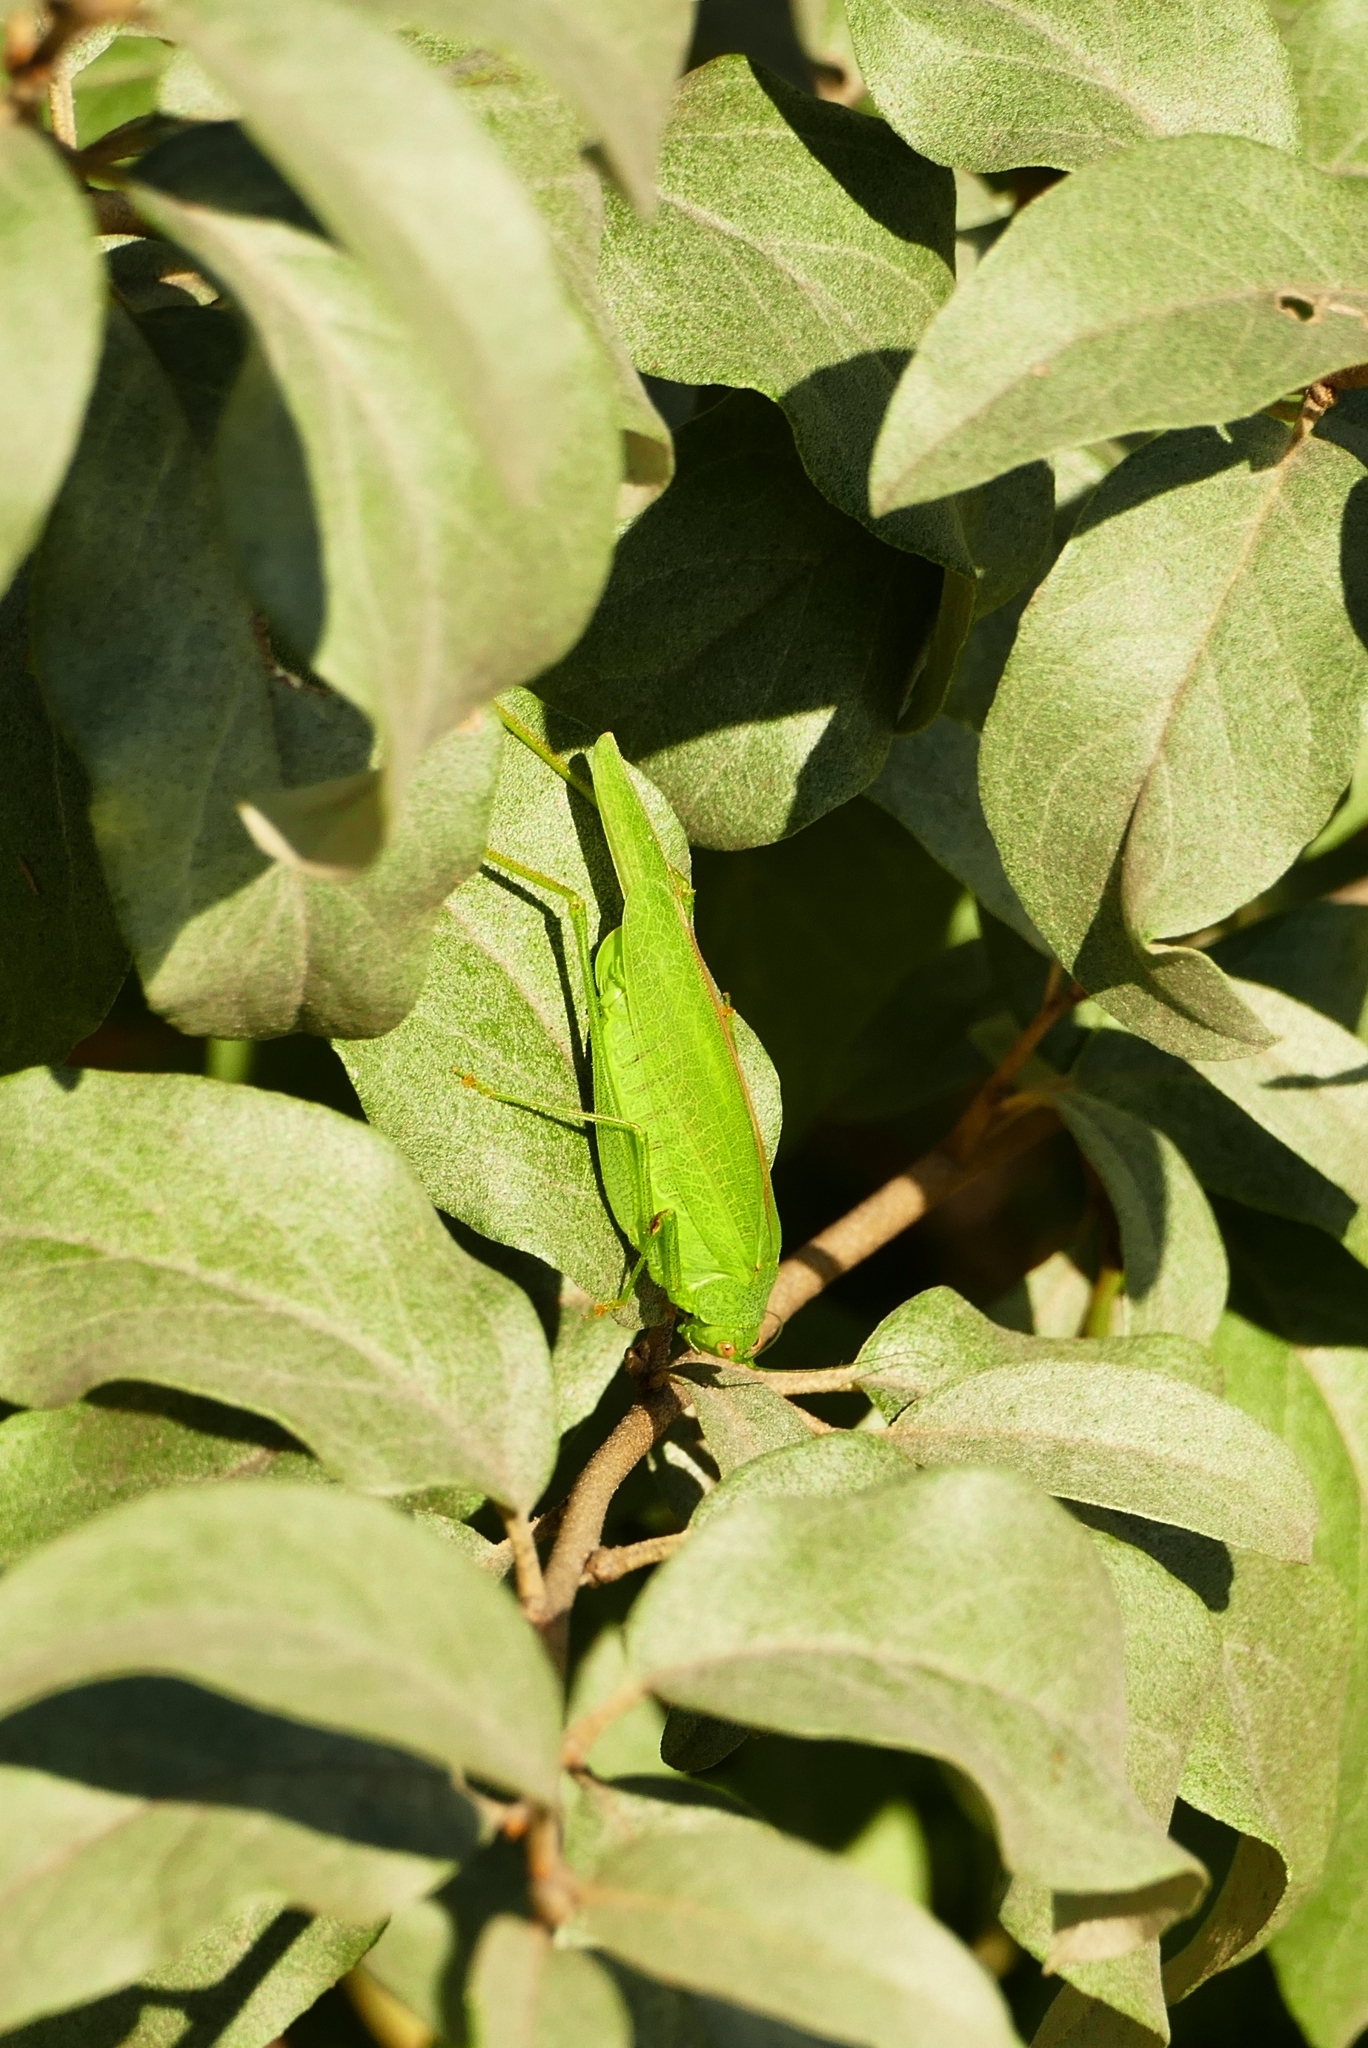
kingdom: Animalia
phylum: Arthropoda
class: Insecta
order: Orthoptera
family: Tettigoniidae
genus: Phaneroptera
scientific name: Phaneroptera nana
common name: Southern sickle bush-cricket
